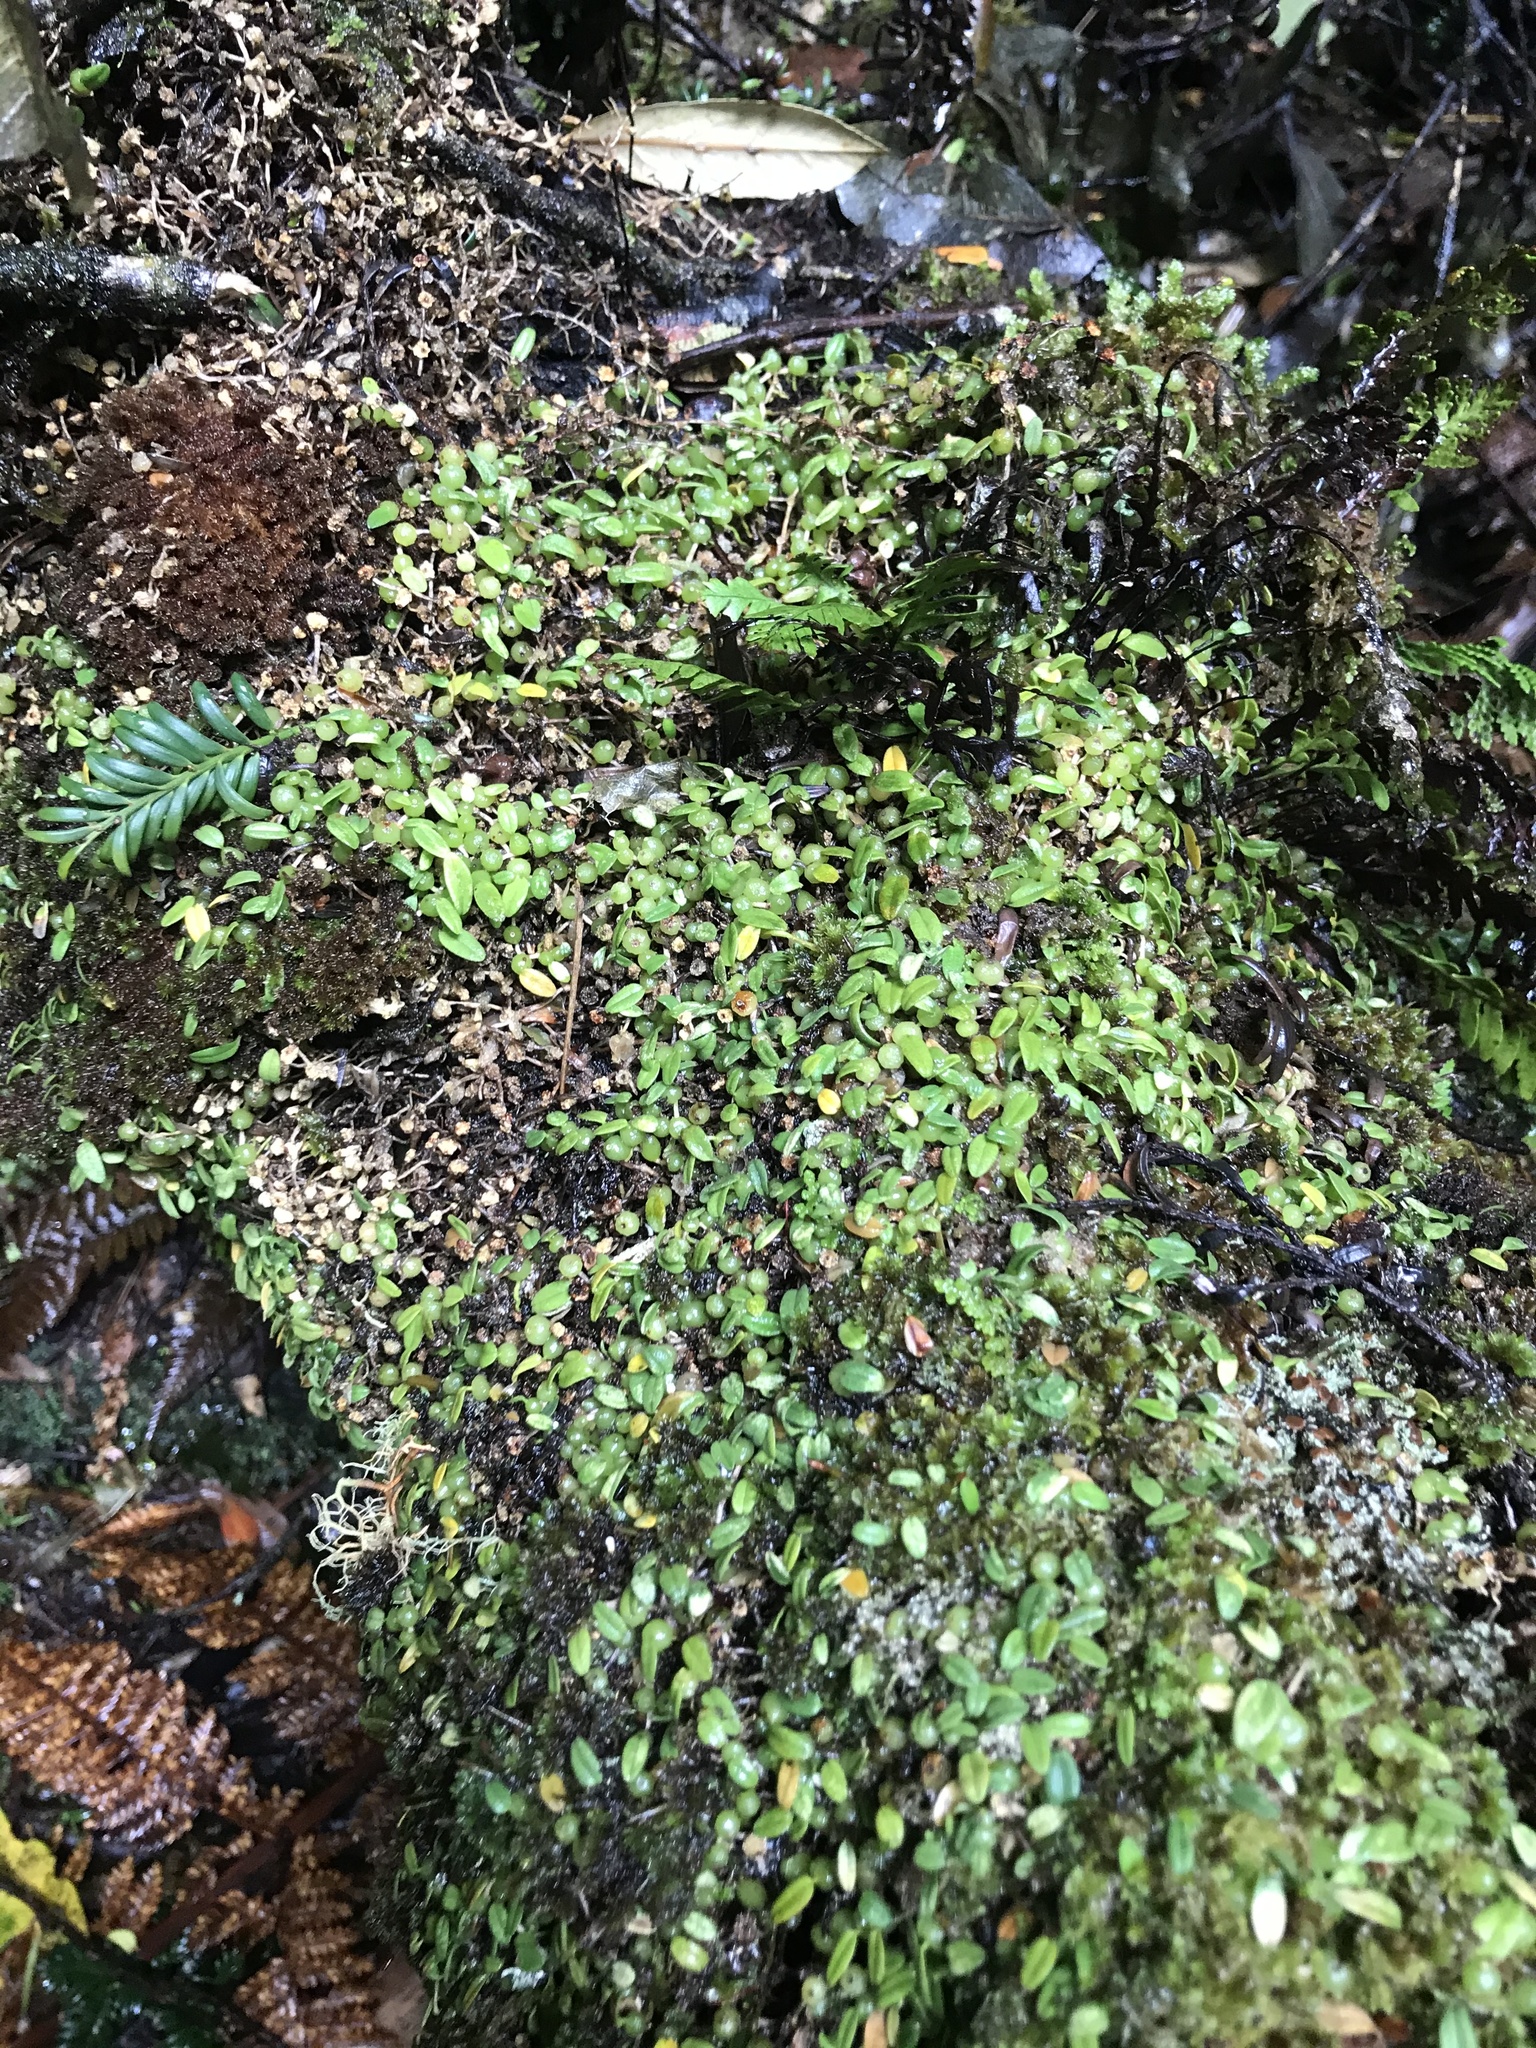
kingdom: Plantae
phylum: Tracheophyta
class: Liliopsida
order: Asparagales
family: Orchidaceae
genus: Bulbophyllum
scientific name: Bulbophyllum pygmaeum
